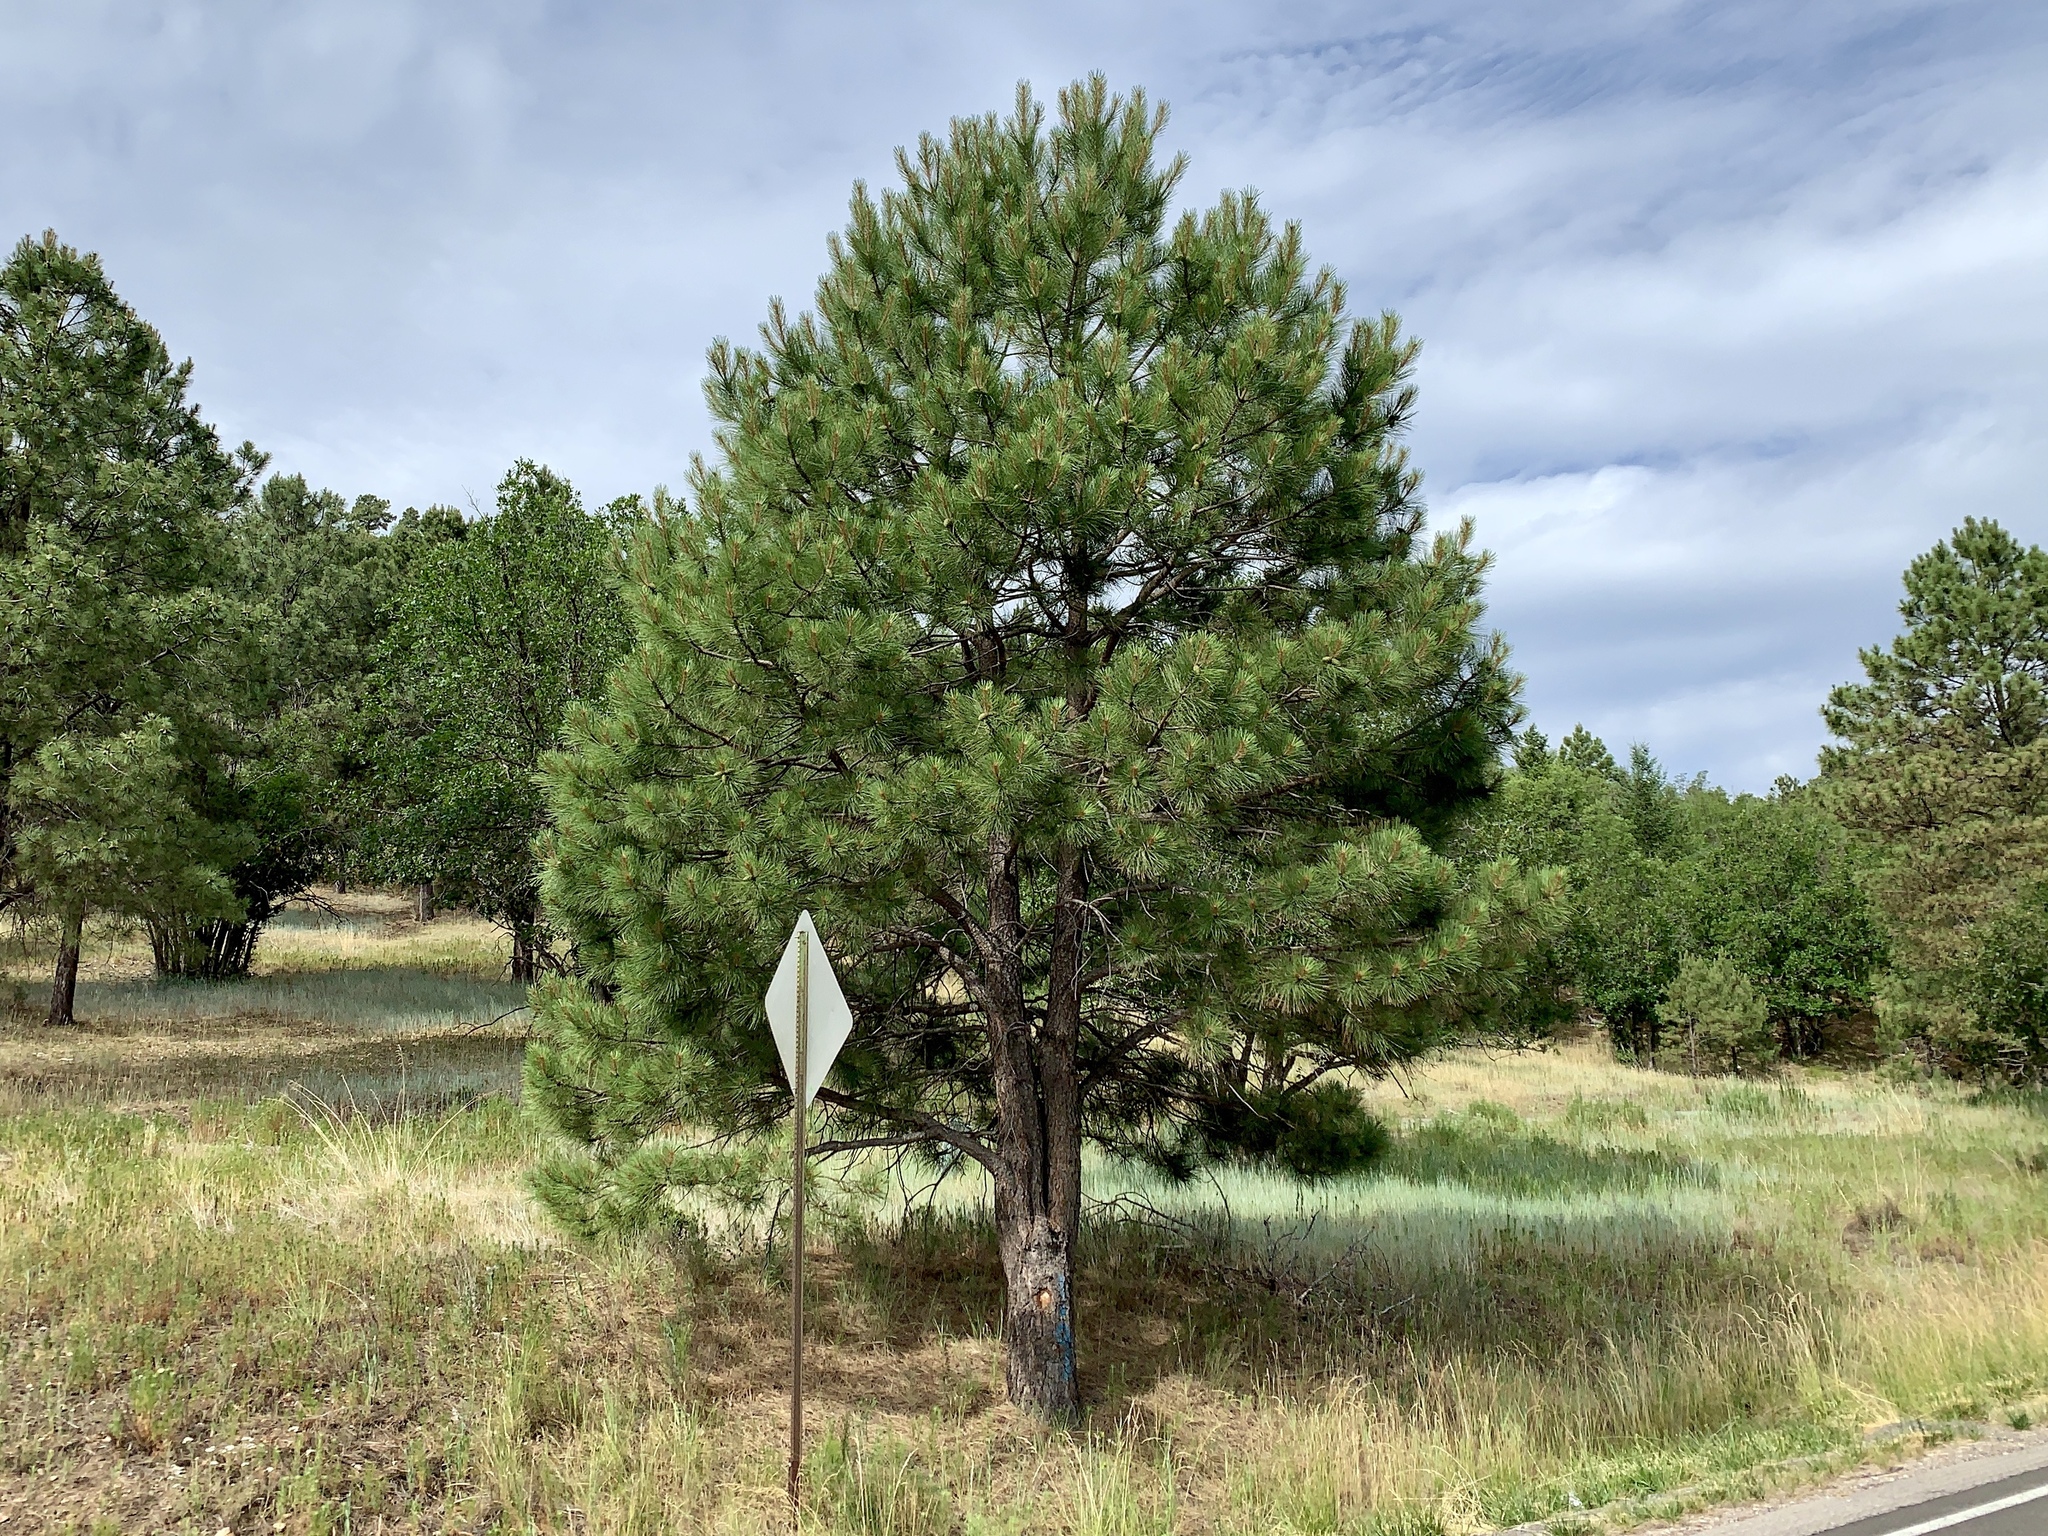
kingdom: Plantae
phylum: Tracheophyta
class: Pinopsida
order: Pinales
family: Pinaceae
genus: Pinus
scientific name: Pinus ponderosa
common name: Western yellow-pine
